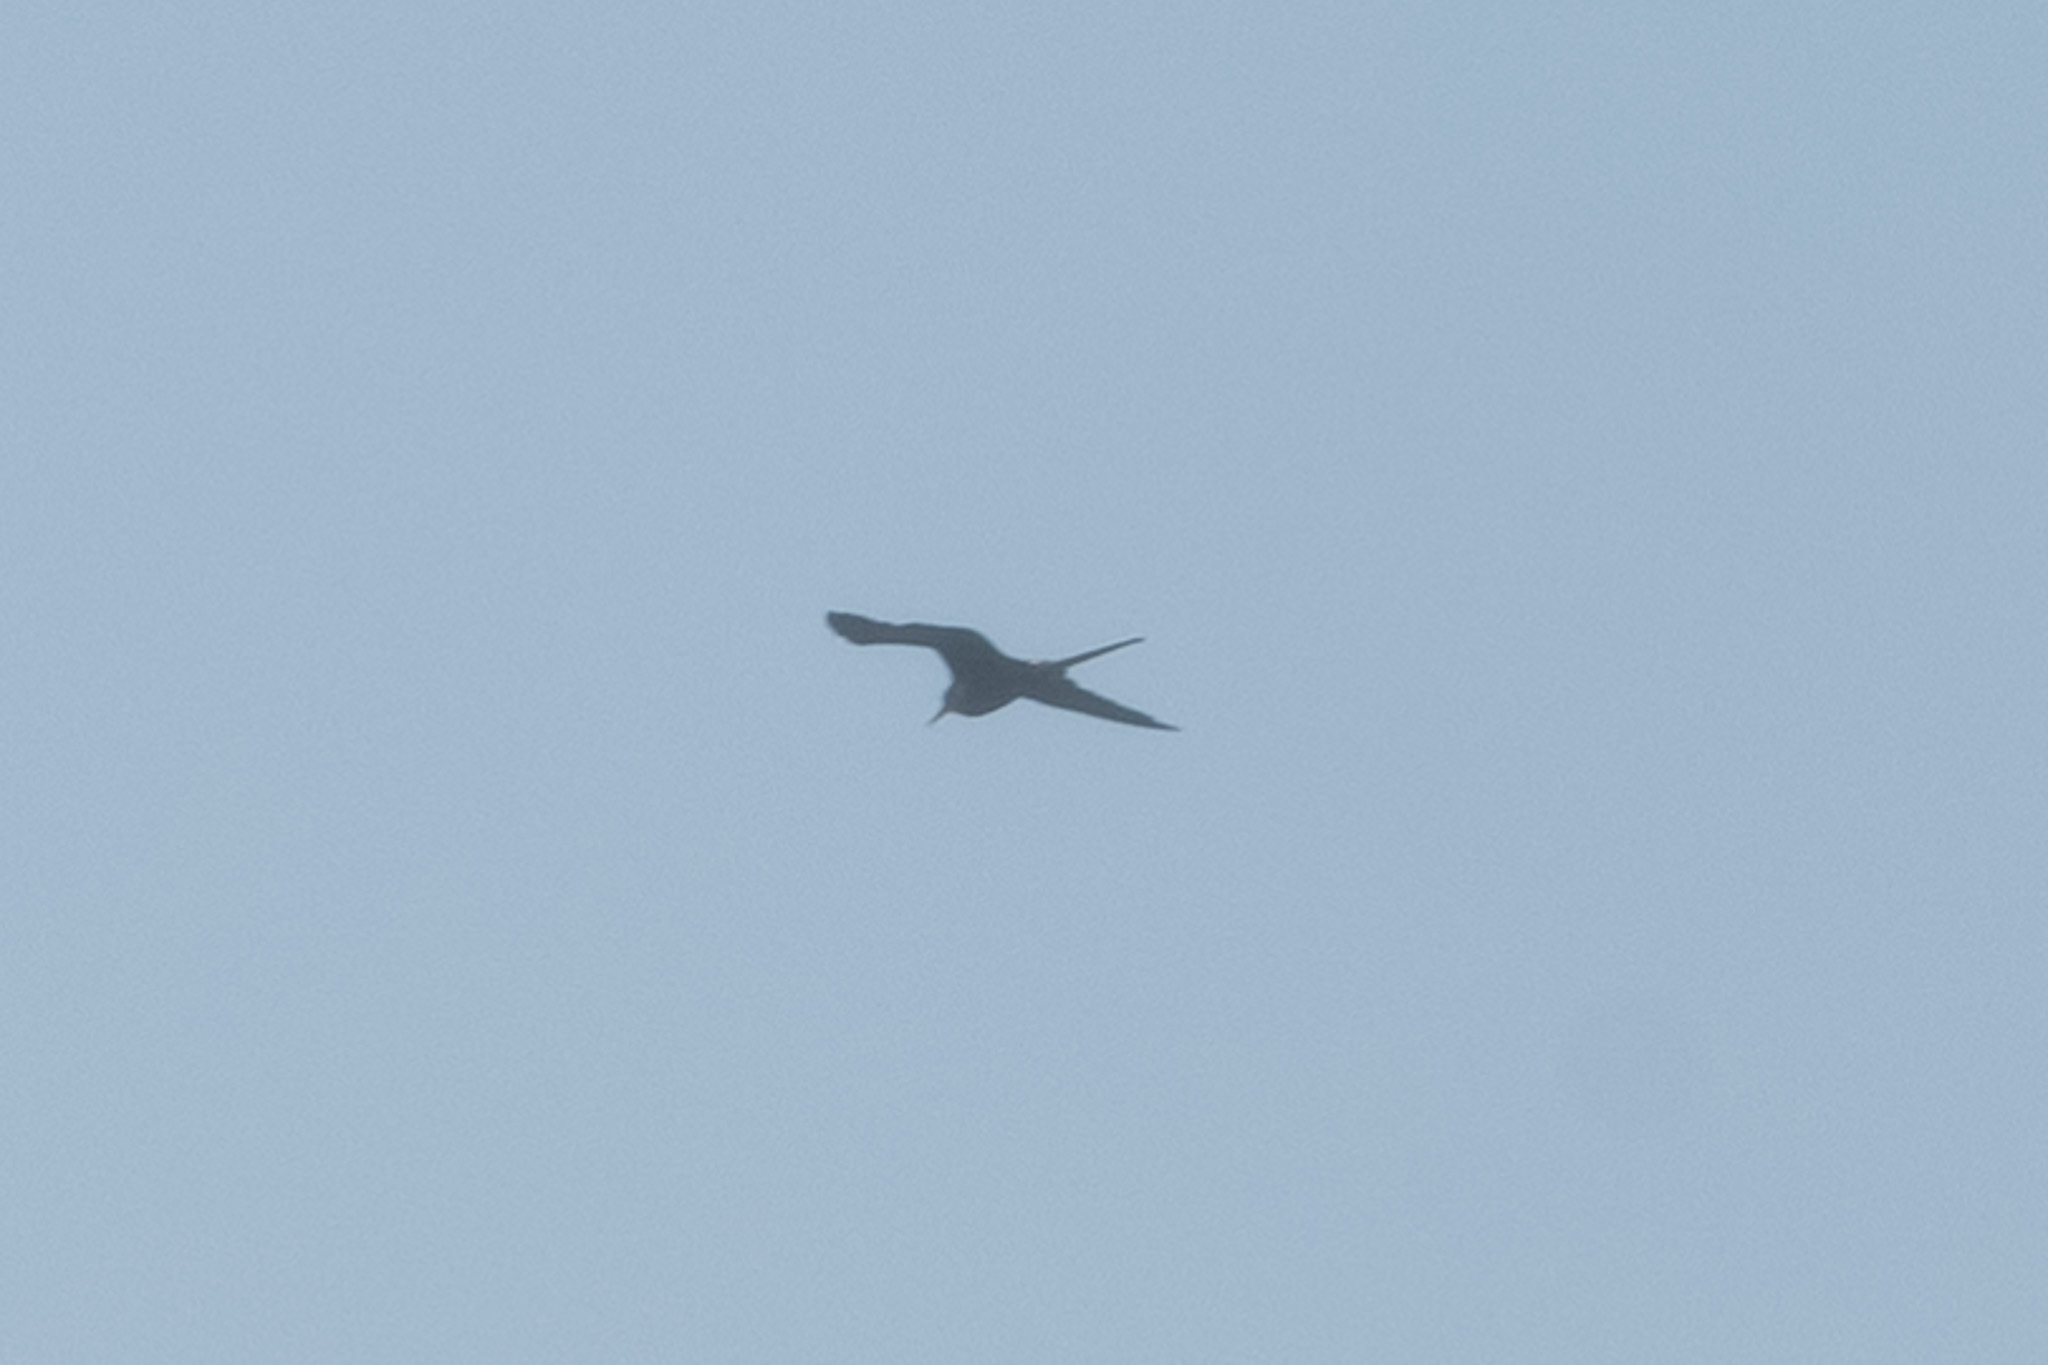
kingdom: Animalia
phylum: Chordata
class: Aves
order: Suliformes
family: Fregatidae
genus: Fregata
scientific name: Fregata magnificens
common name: Magnificent frigatebird
